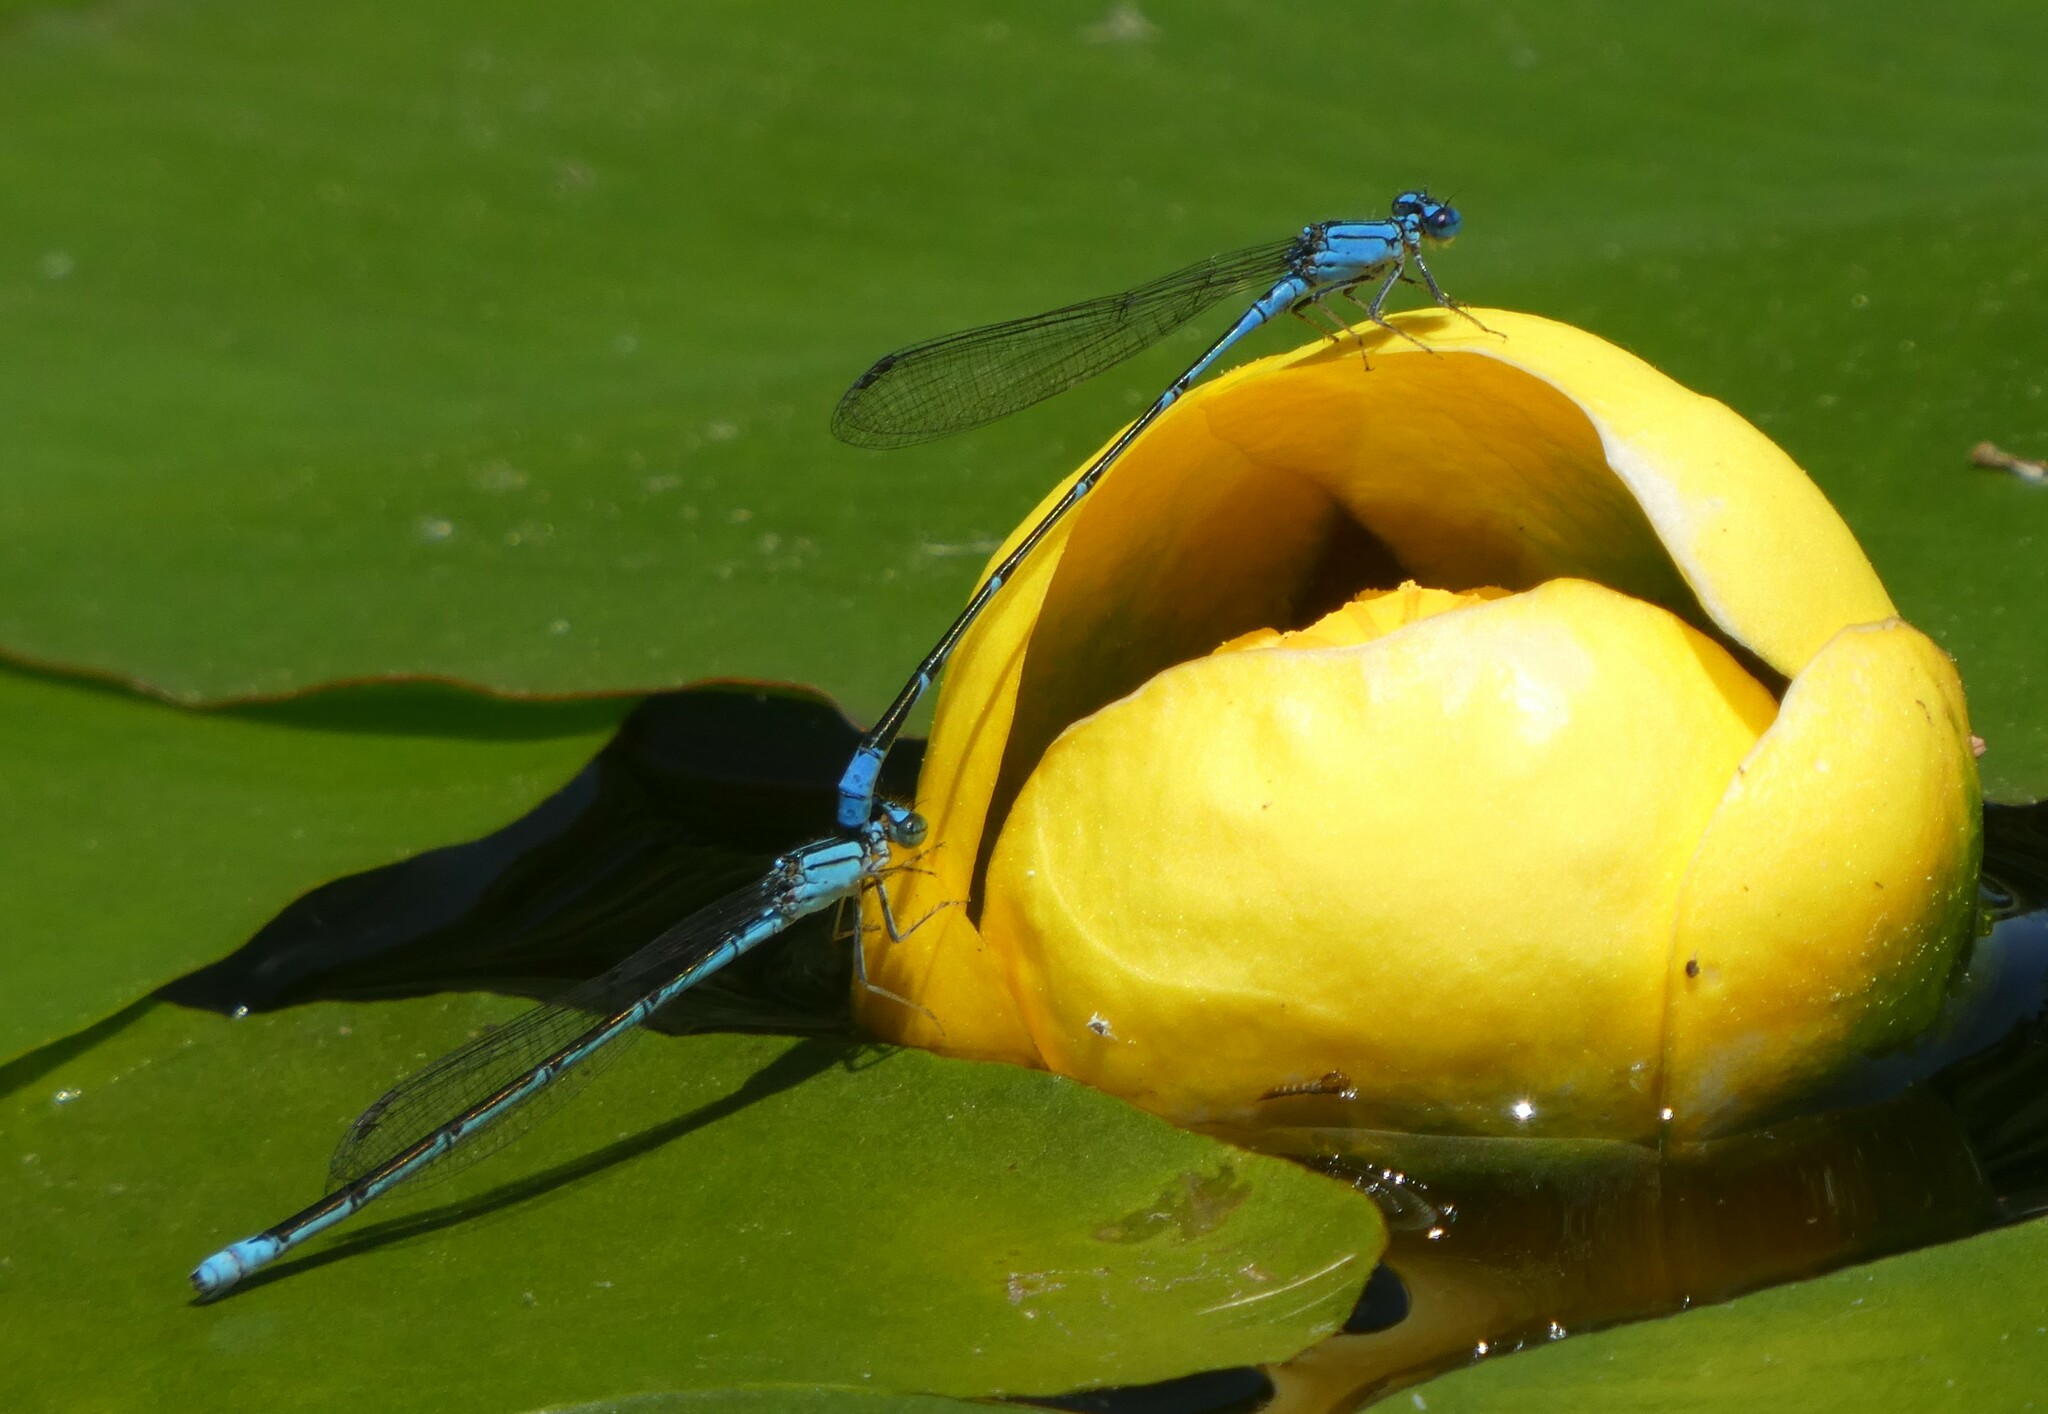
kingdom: Animalia
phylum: Arthropoda
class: Insecta
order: Odonata
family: Coenagrionidae
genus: Enallagma
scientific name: Enallagma traviatum
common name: Slender bluet
